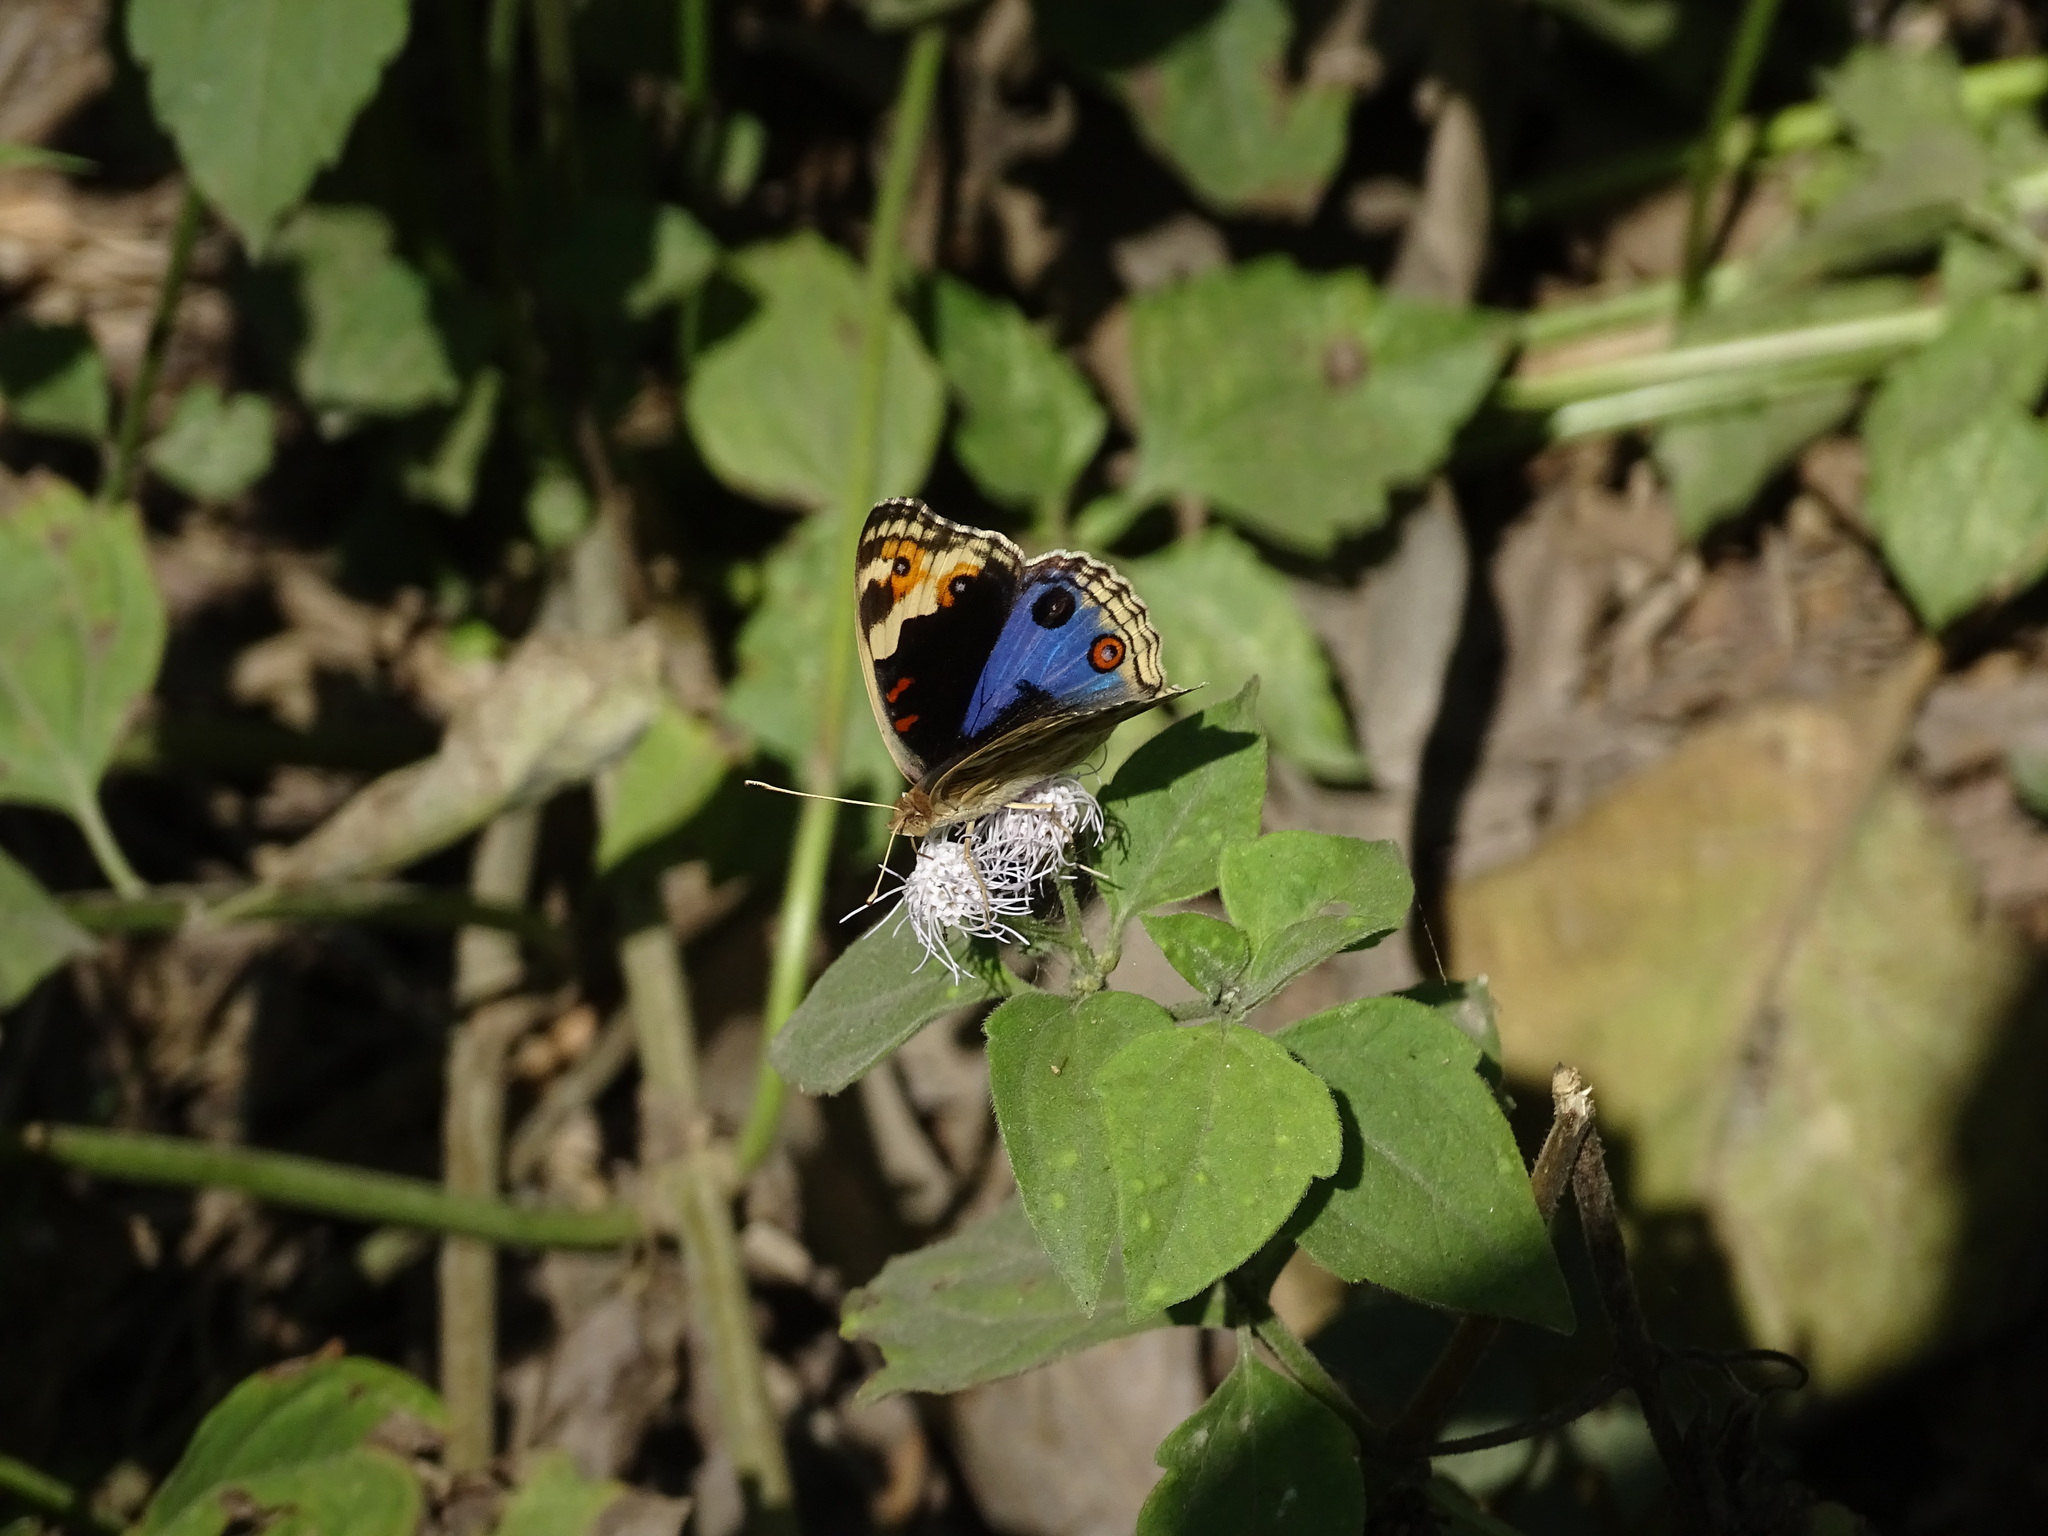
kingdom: Animalia
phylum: Arthropoda
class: Insecta
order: Lepidoptera
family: Nymphalidae
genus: Junonia
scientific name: Junonia orithya
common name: Blue pansy
